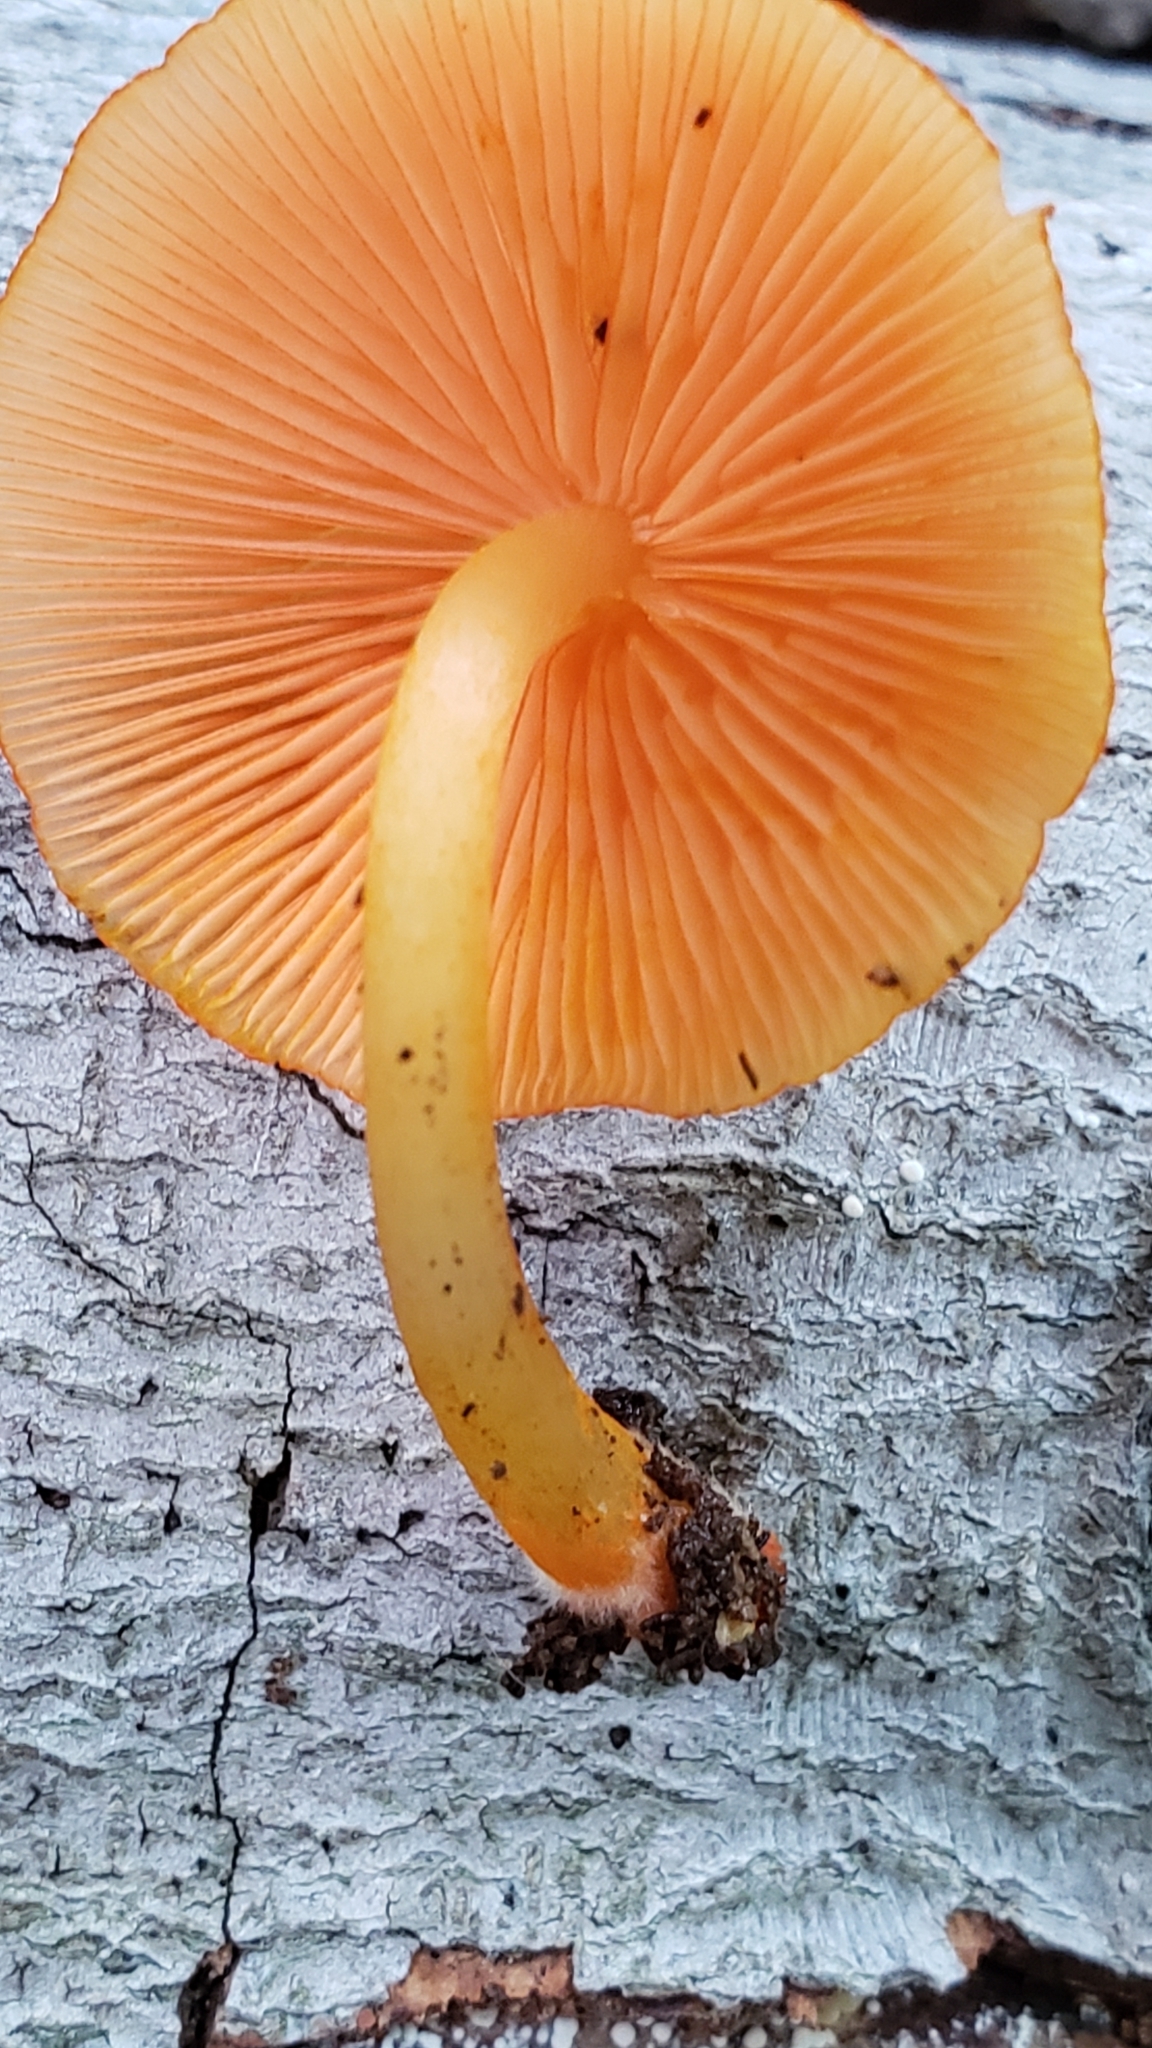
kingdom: Fungi
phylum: Basidiomycota
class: Agaricomycetes
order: Agaricales
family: Mycenaceae
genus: Mycena
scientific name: Mycena leaiana
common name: Orange mycena
